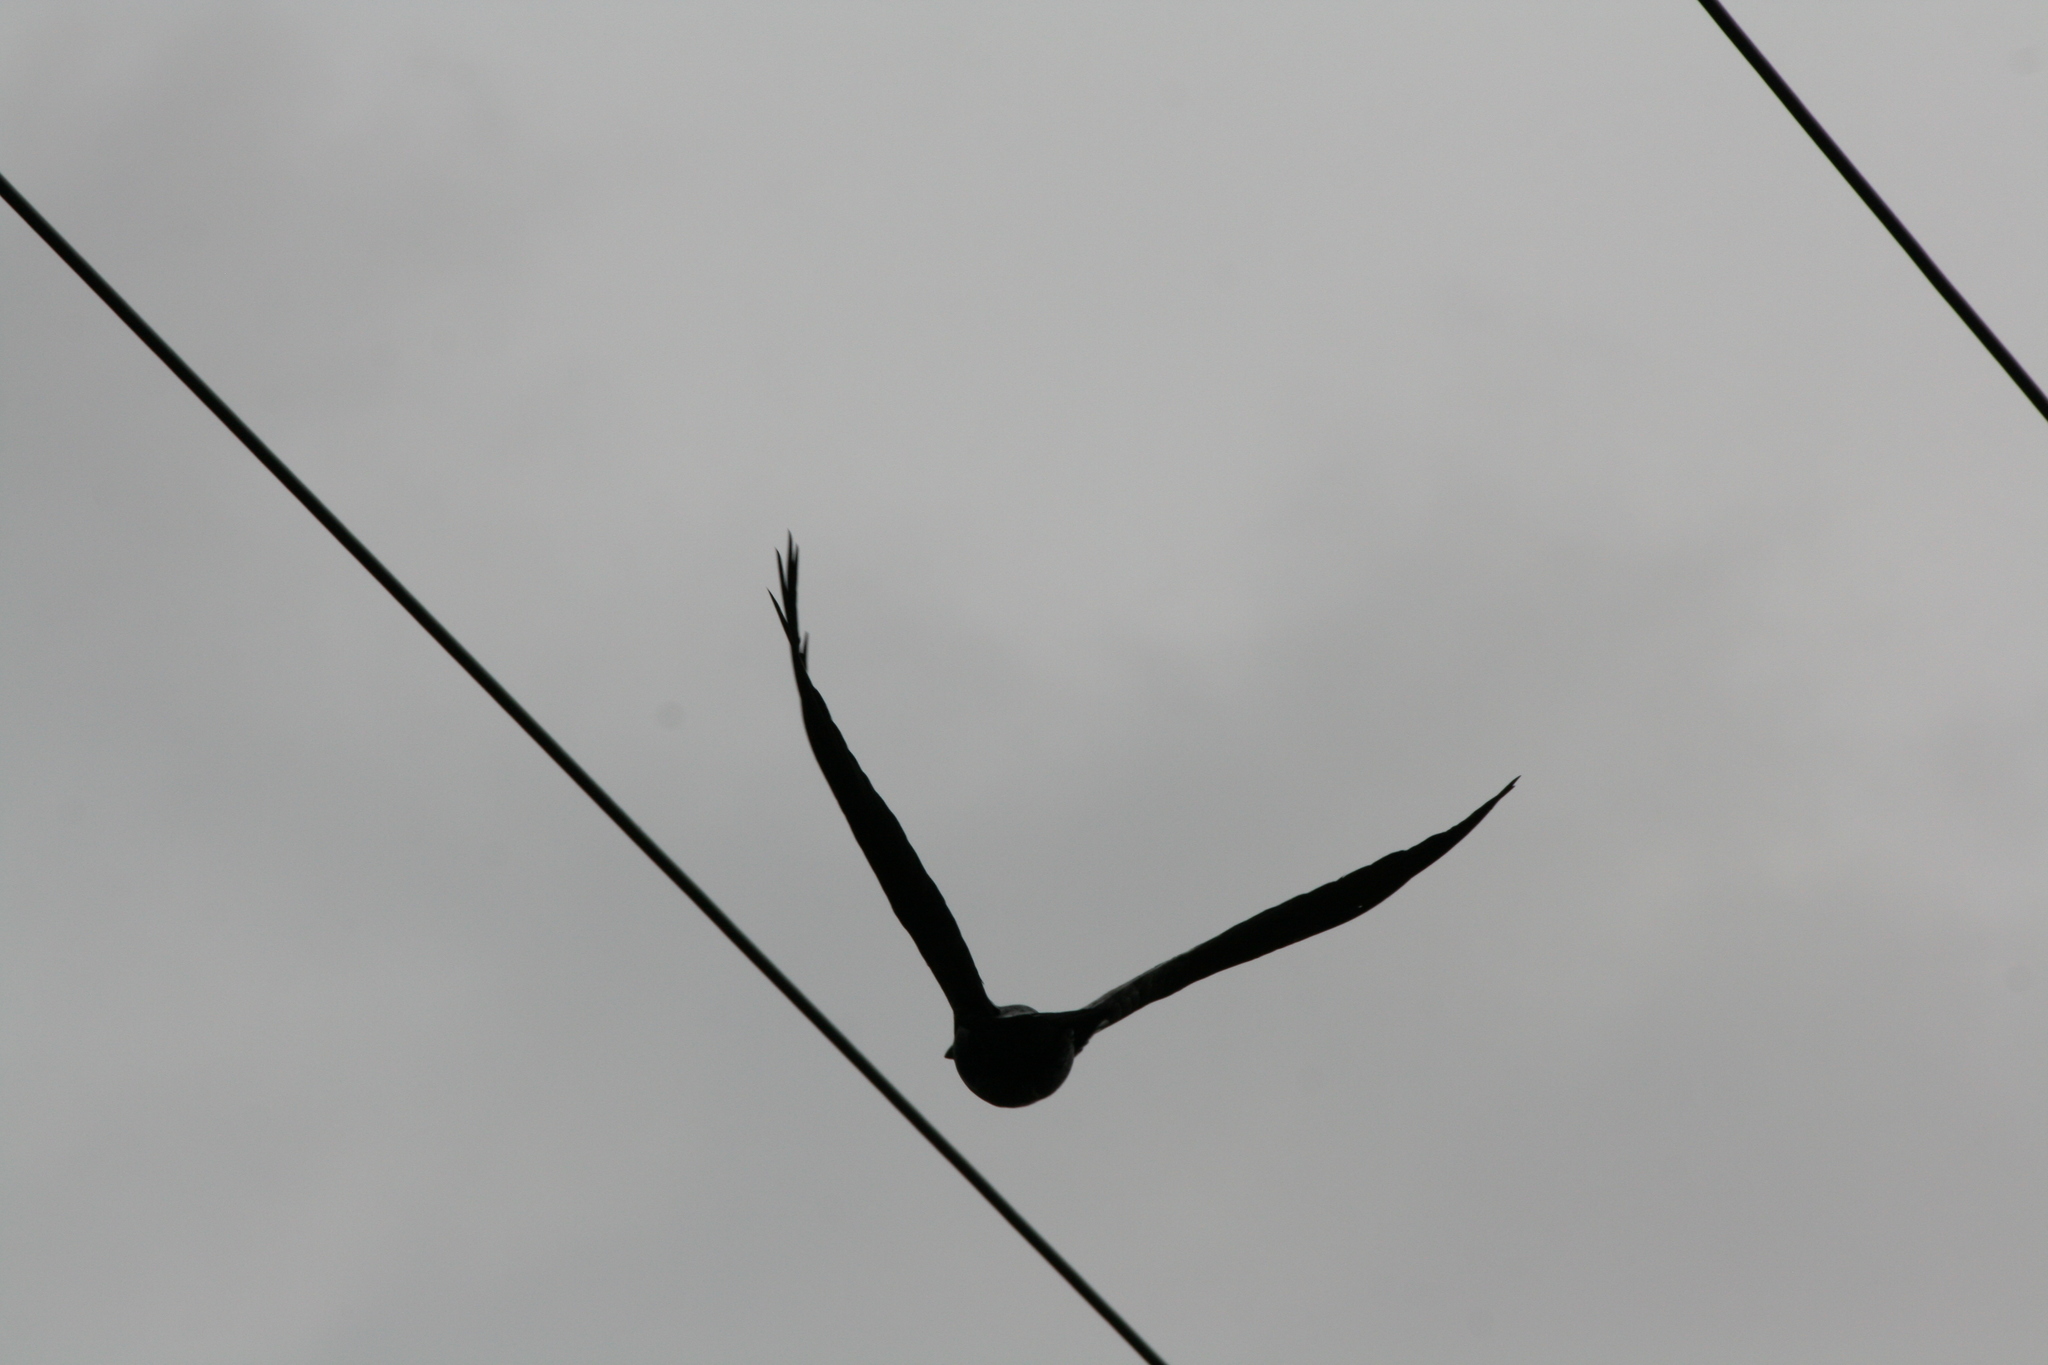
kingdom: Animalia
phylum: Chordata
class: Aves
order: Passeriformes
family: Corvidae
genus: Corvus
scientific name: Corvus corax
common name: Common raven
